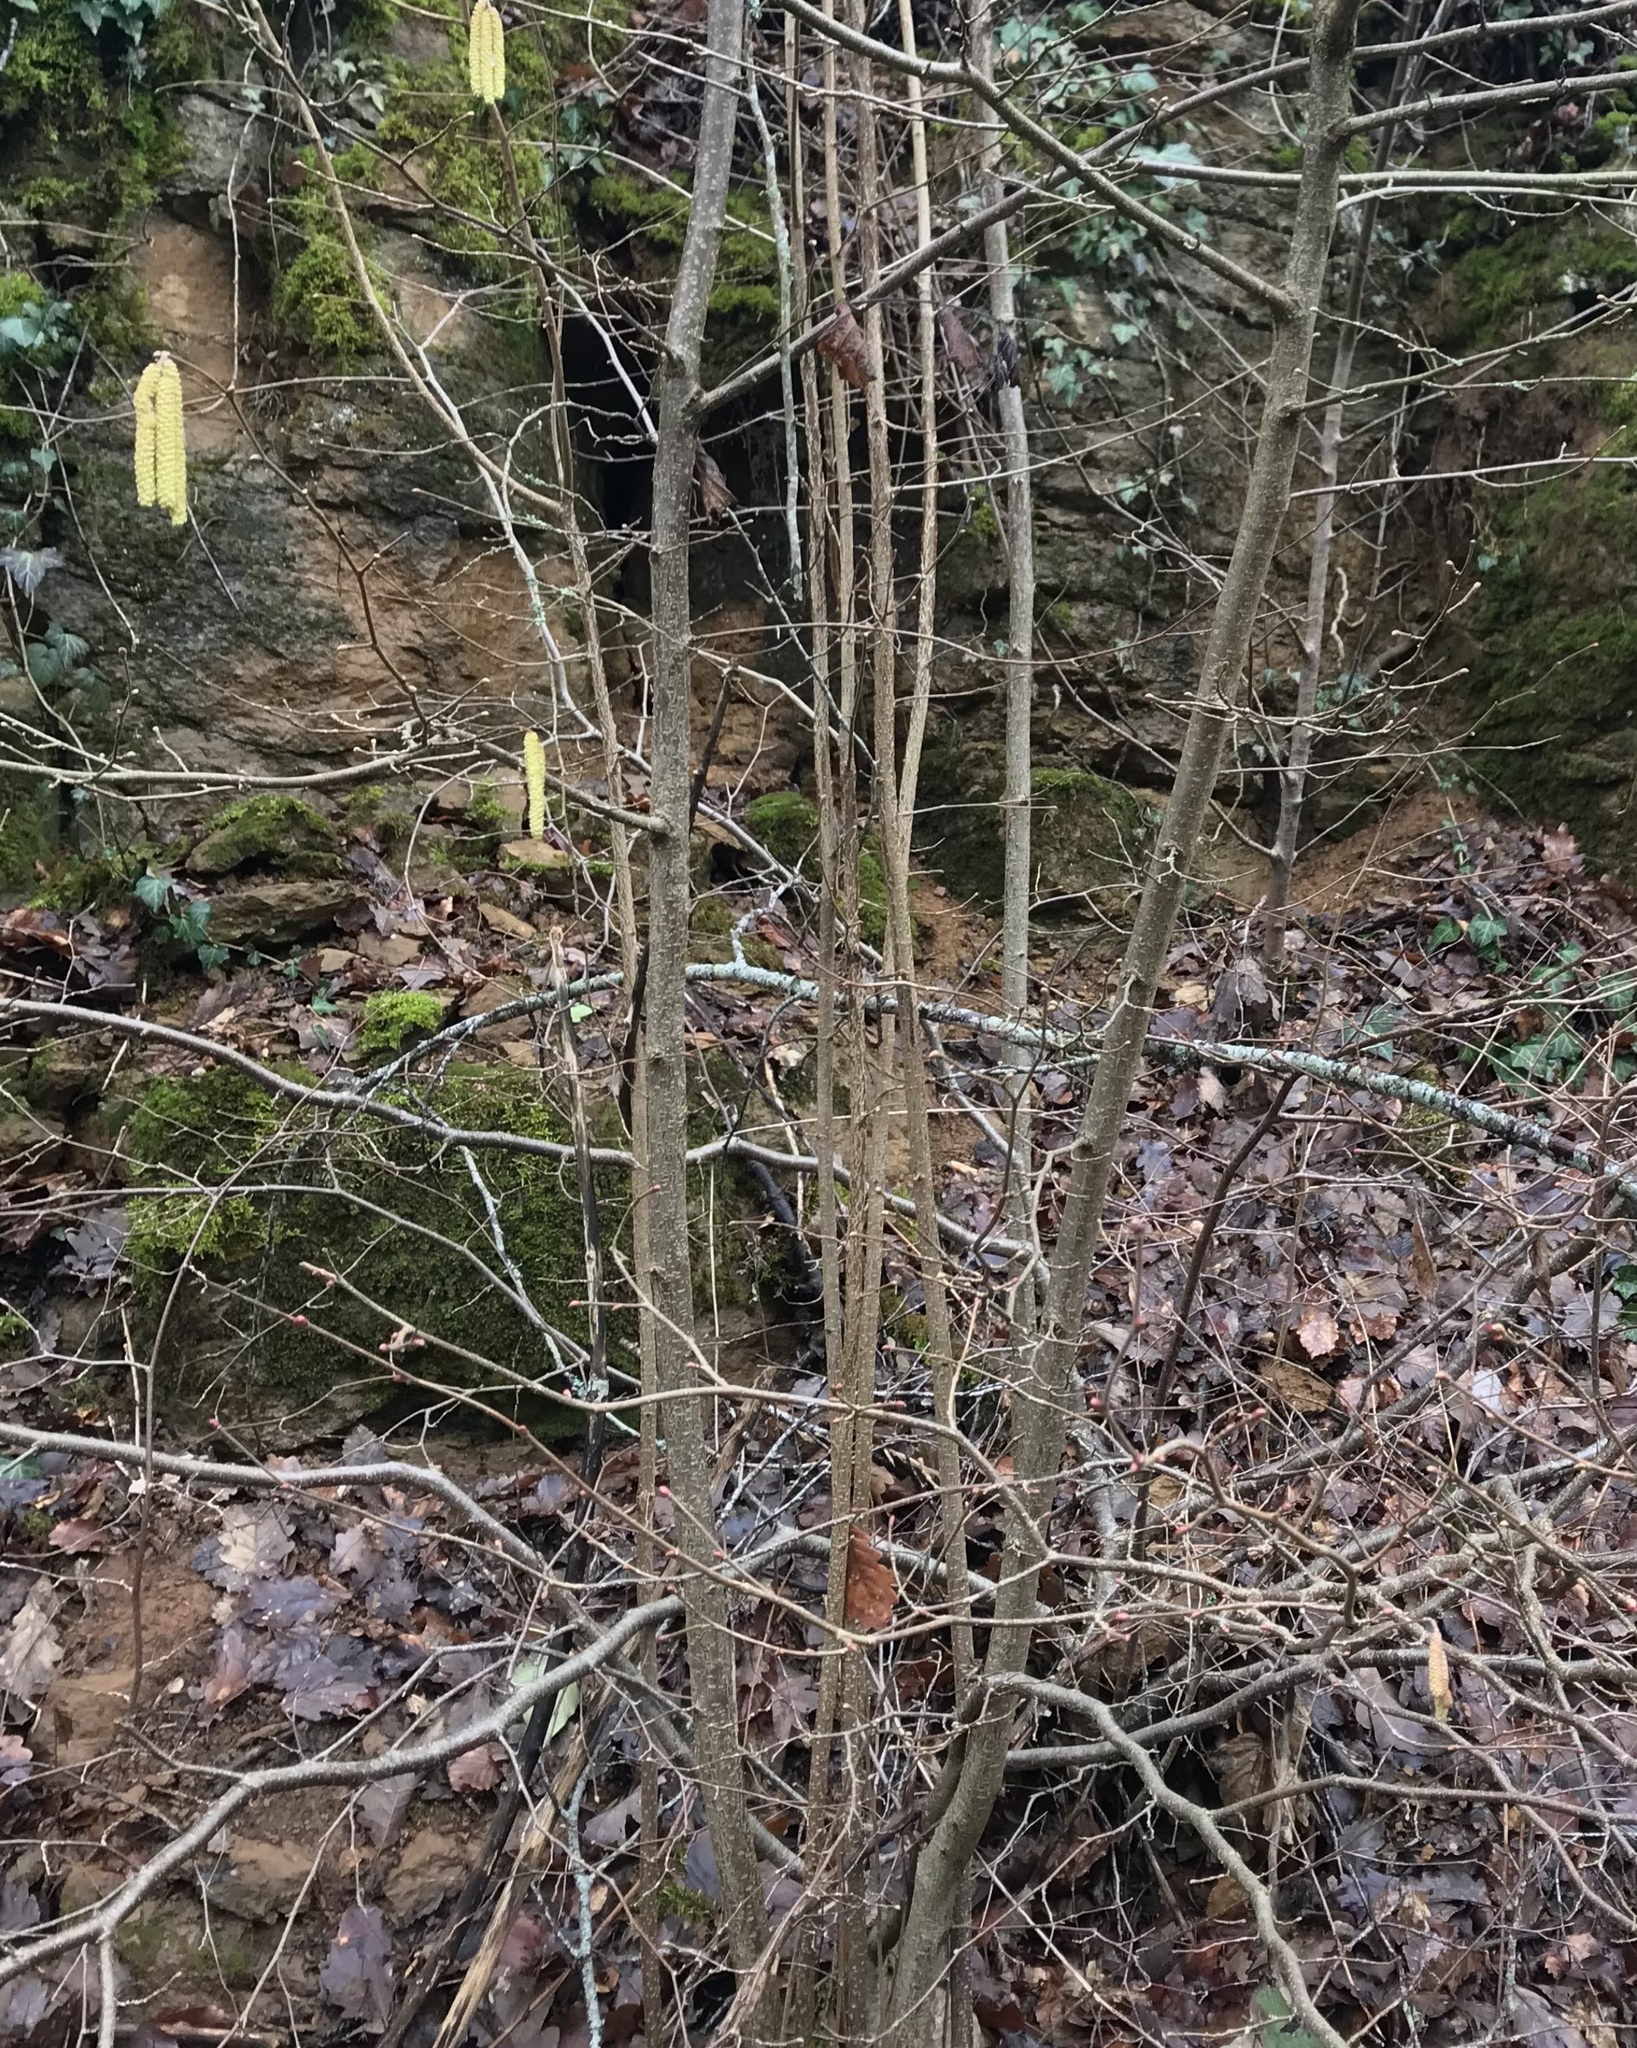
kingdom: Plantae
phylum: Tracheophyta
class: Magnoliopsida
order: Fagales
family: Betulaceae
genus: Corylus
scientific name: Corylus avellana
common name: European hazel
